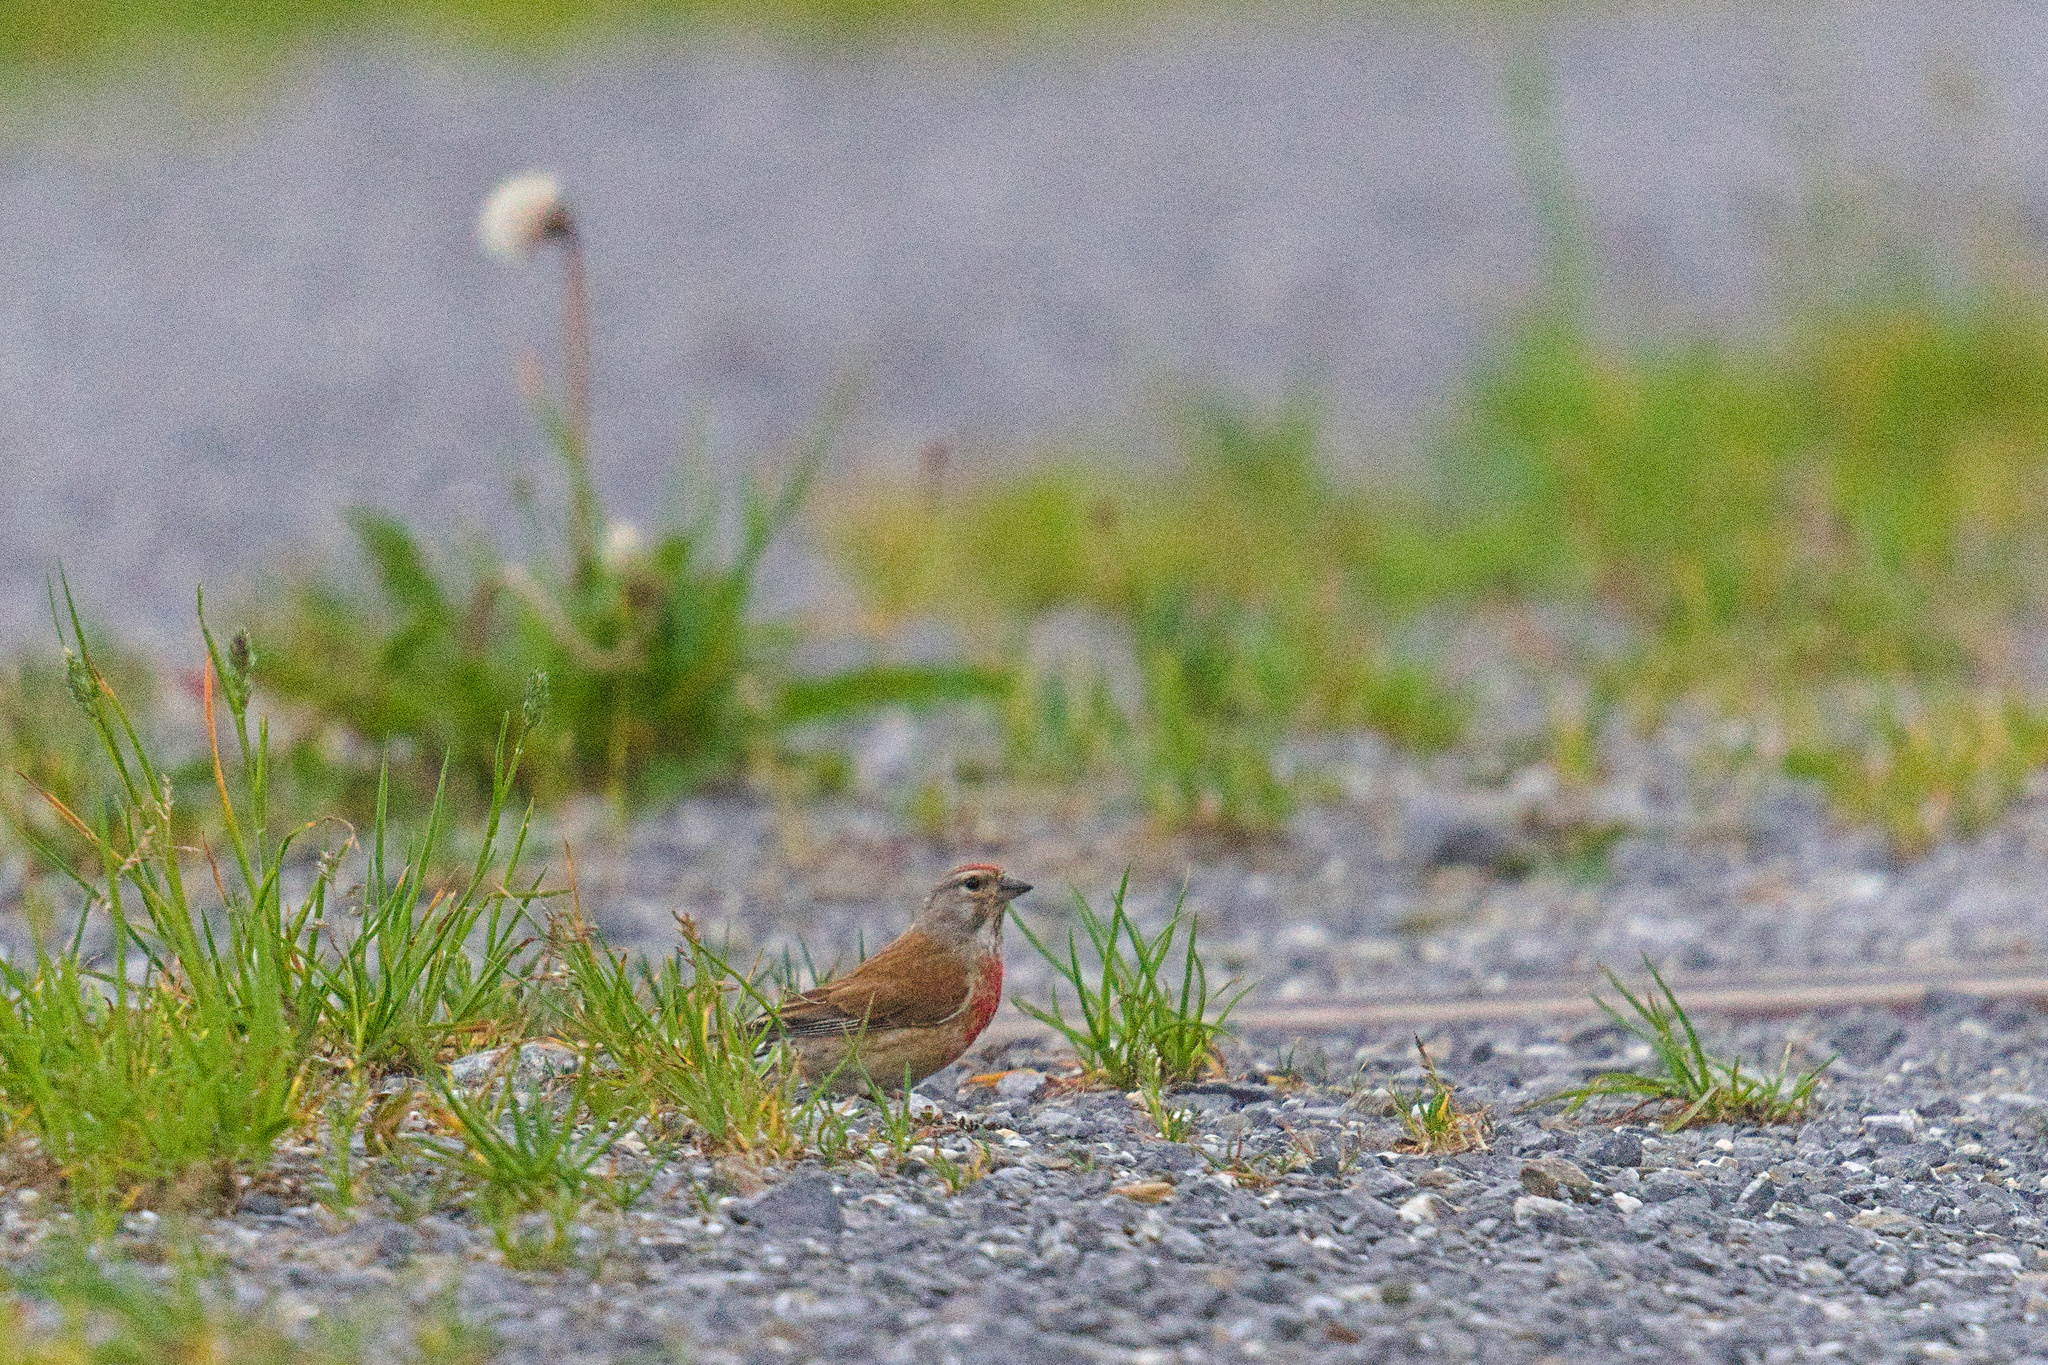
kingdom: Animalia
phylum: Chordata
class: Aves
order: Passeriformes
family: Fringillidae
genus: Linaria
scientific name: Linaria cannabina
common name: Common linnet
